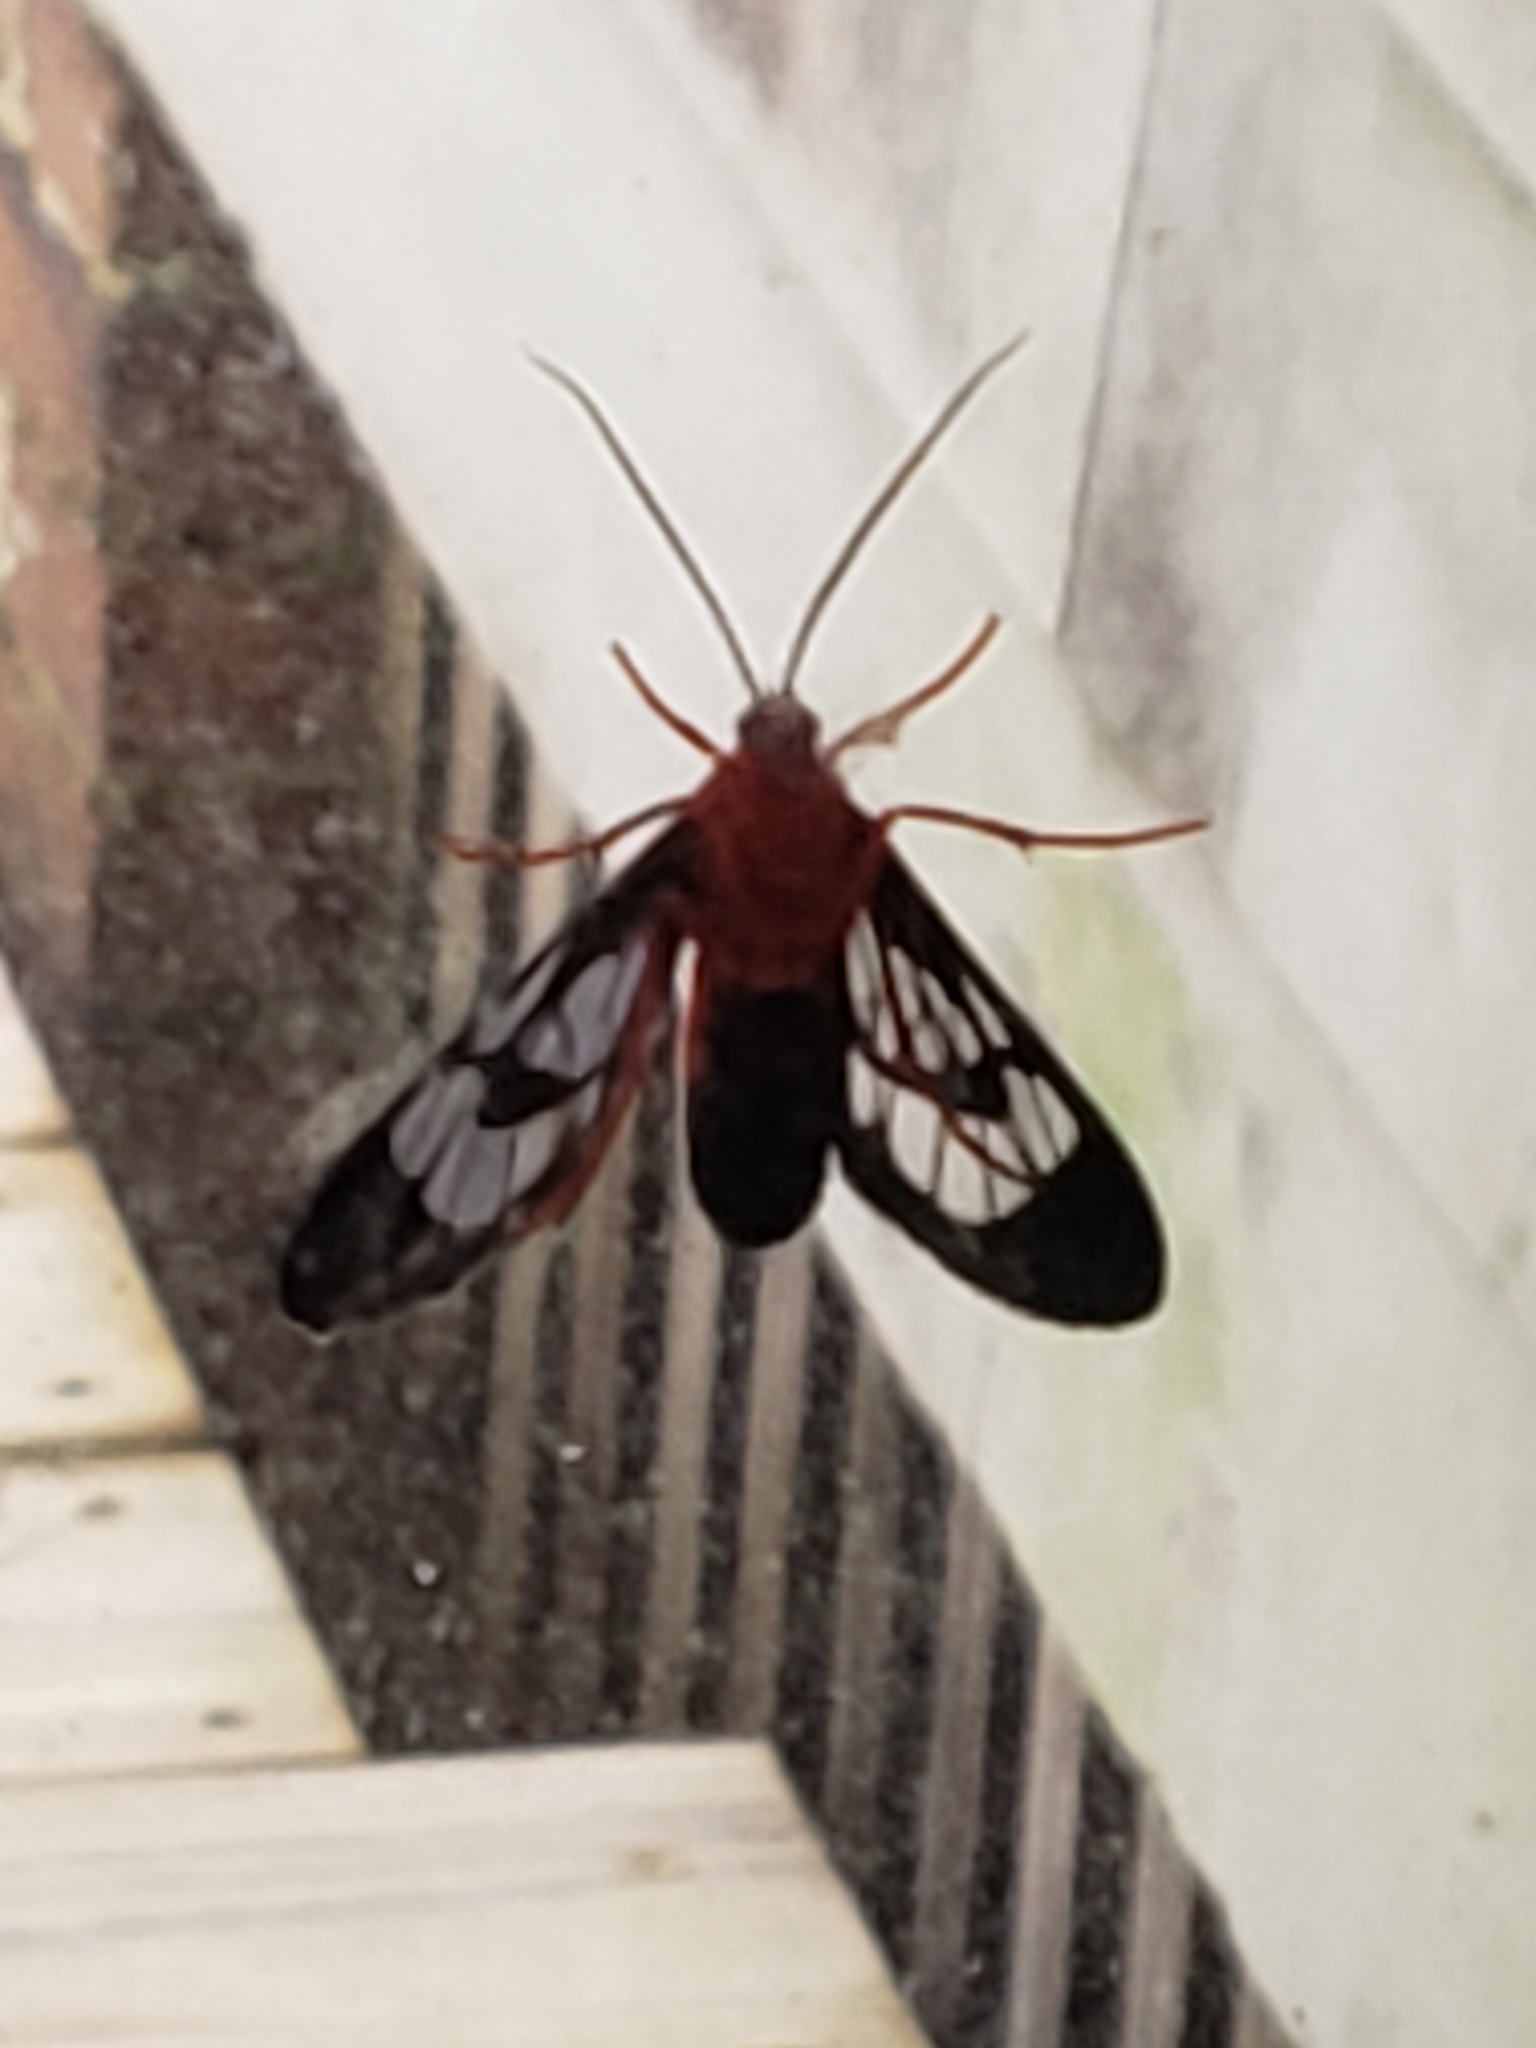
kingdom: Animalia
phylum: Arthropoda
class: Insecta
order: Lepidoptera
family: Erebidae
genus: Cosmosoma
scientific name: Cosmosoma myrodora
